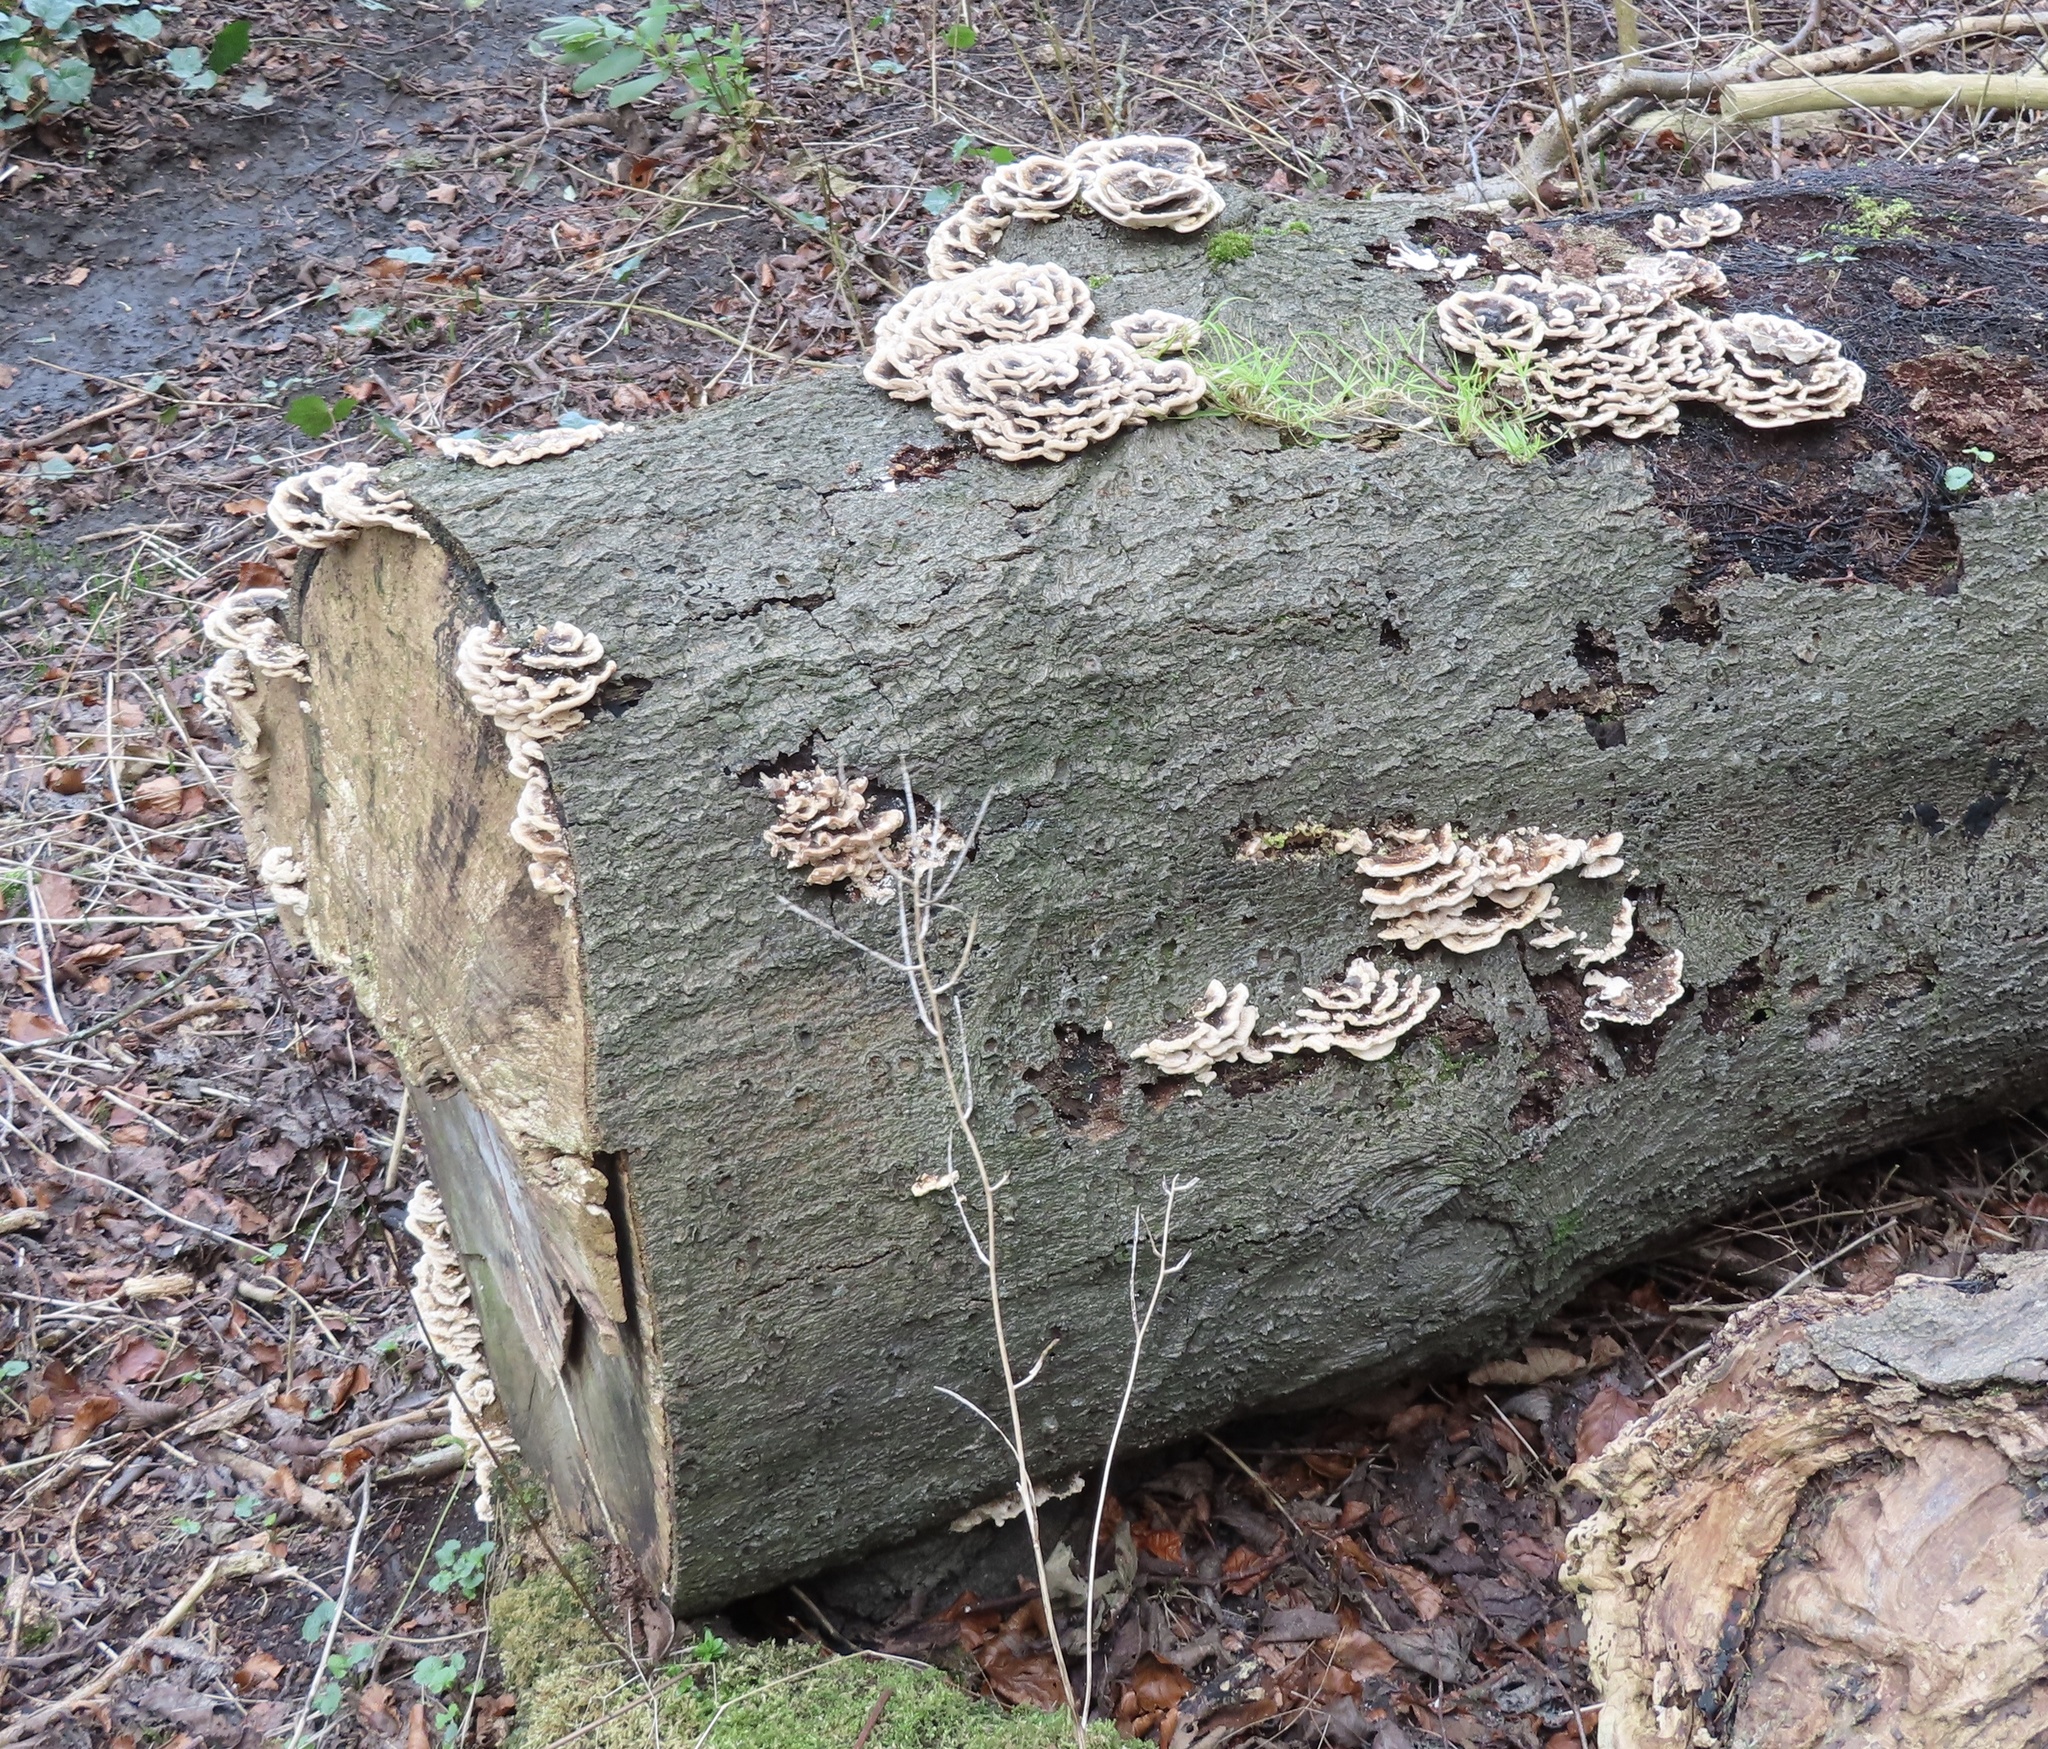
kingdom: Fungi
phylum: Basidiomycota
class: Agaricomycetes
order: Polyporales
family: Polyporaceae
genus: Trametes
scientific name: Trametes versicolor
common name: Turkeytail
